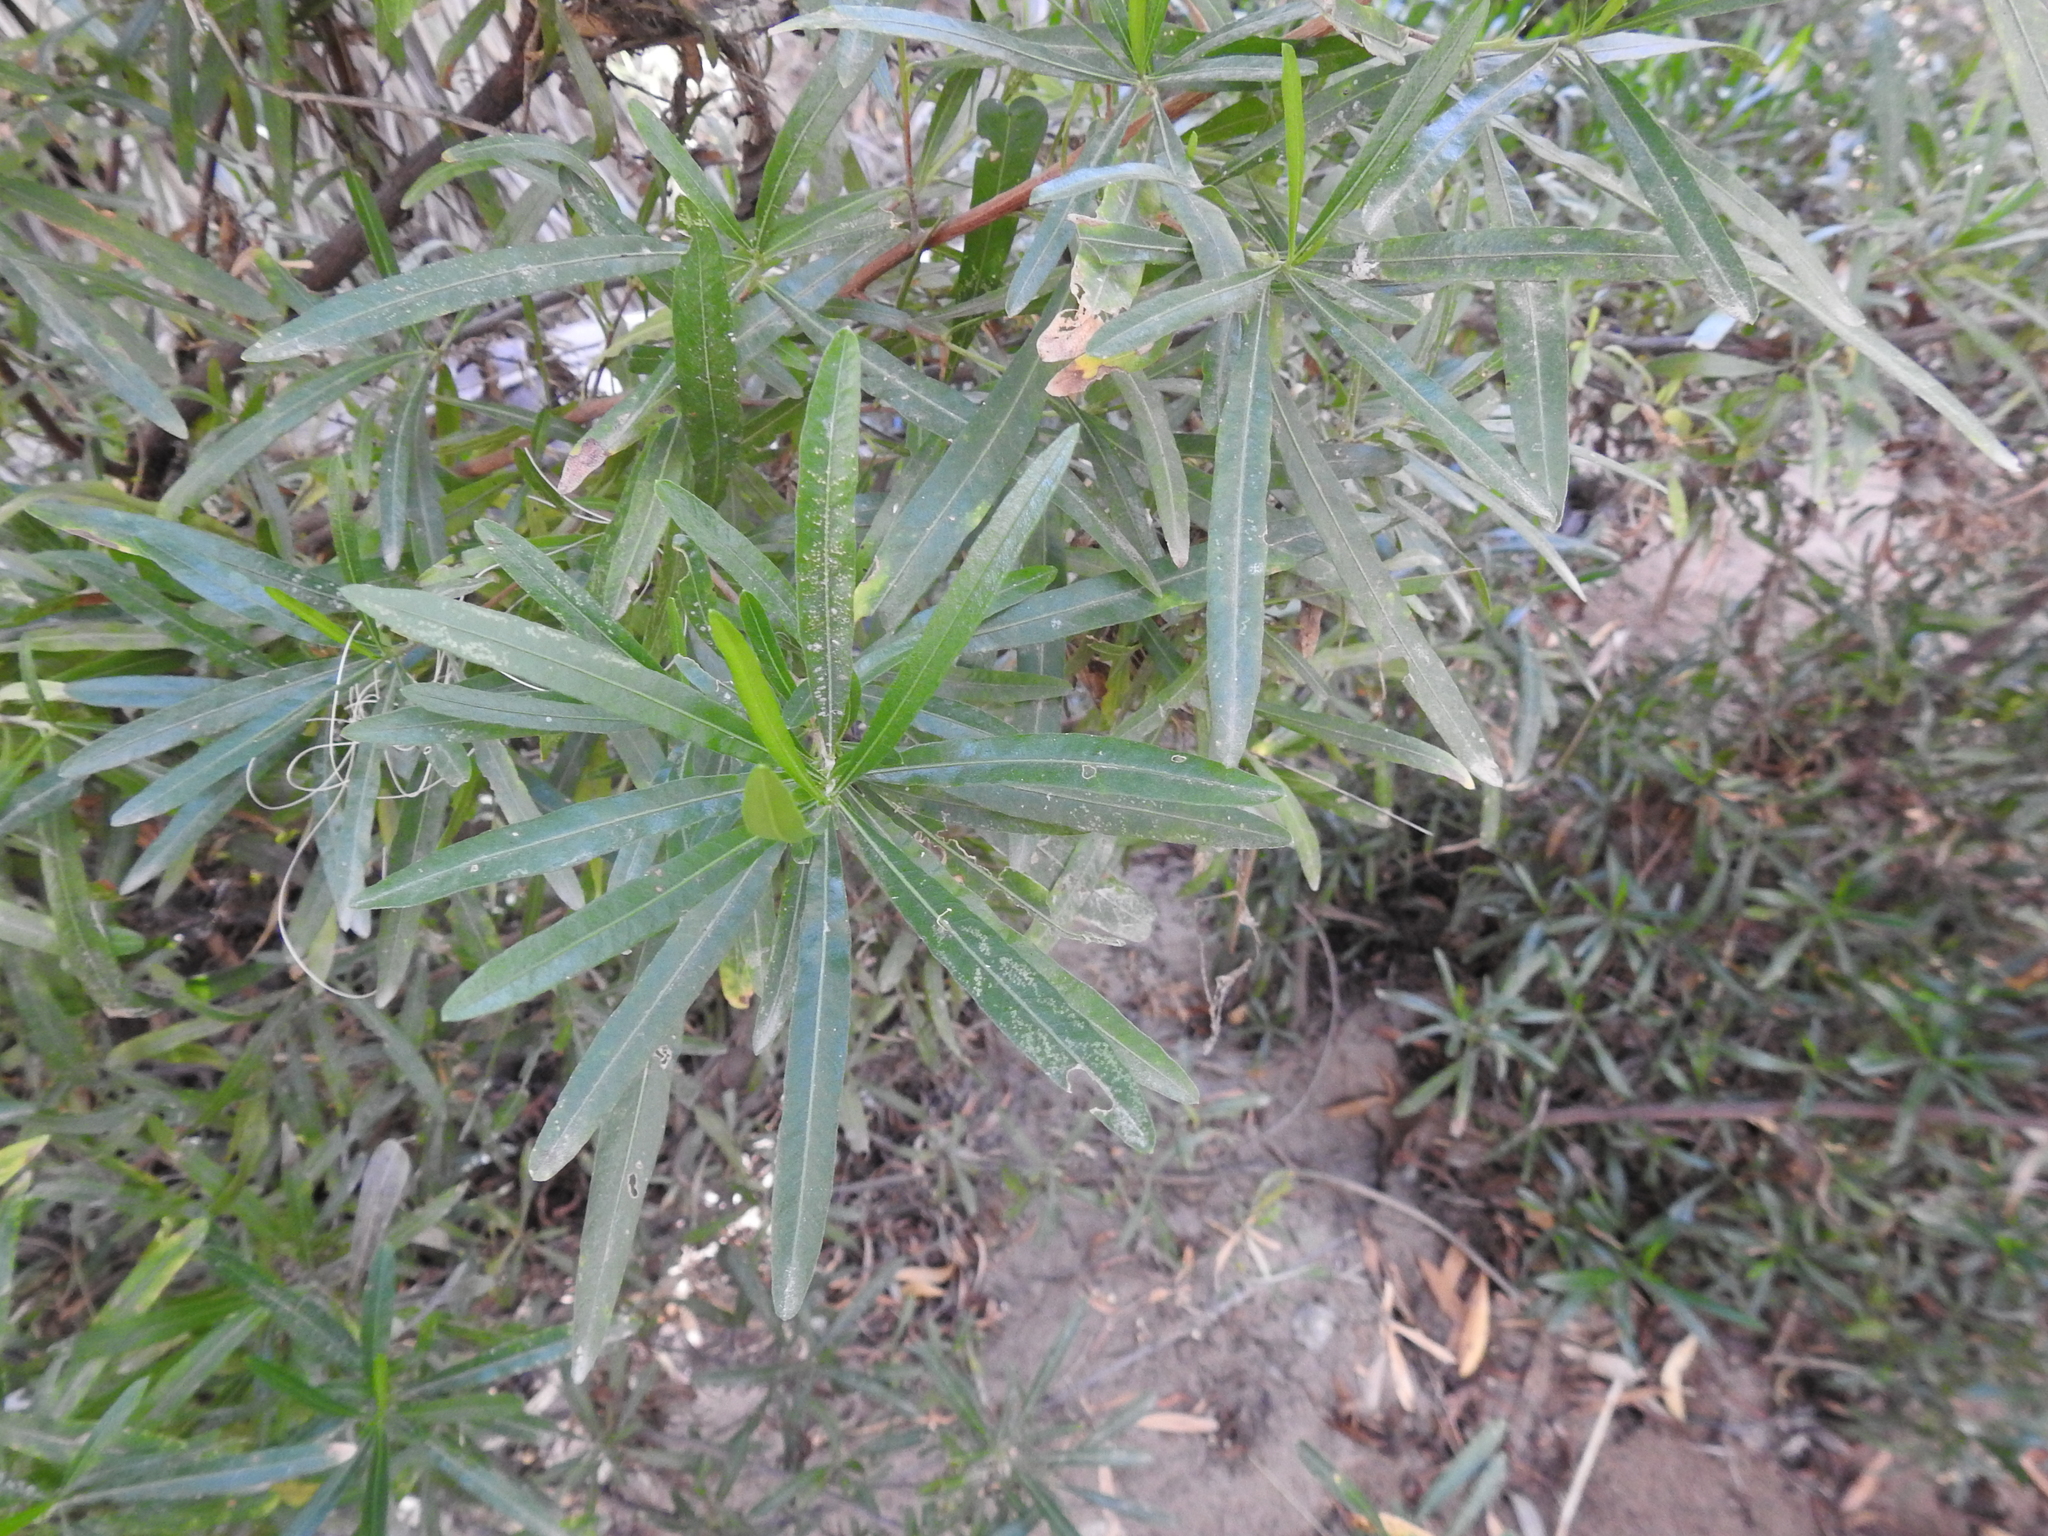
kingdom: Plantae
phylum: Tracheophyta
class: Magnoliopsida
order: Sapindales
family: Sapindaceae
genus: Dodonaea
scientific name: Dodonaea viscosa
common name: Hopbush
